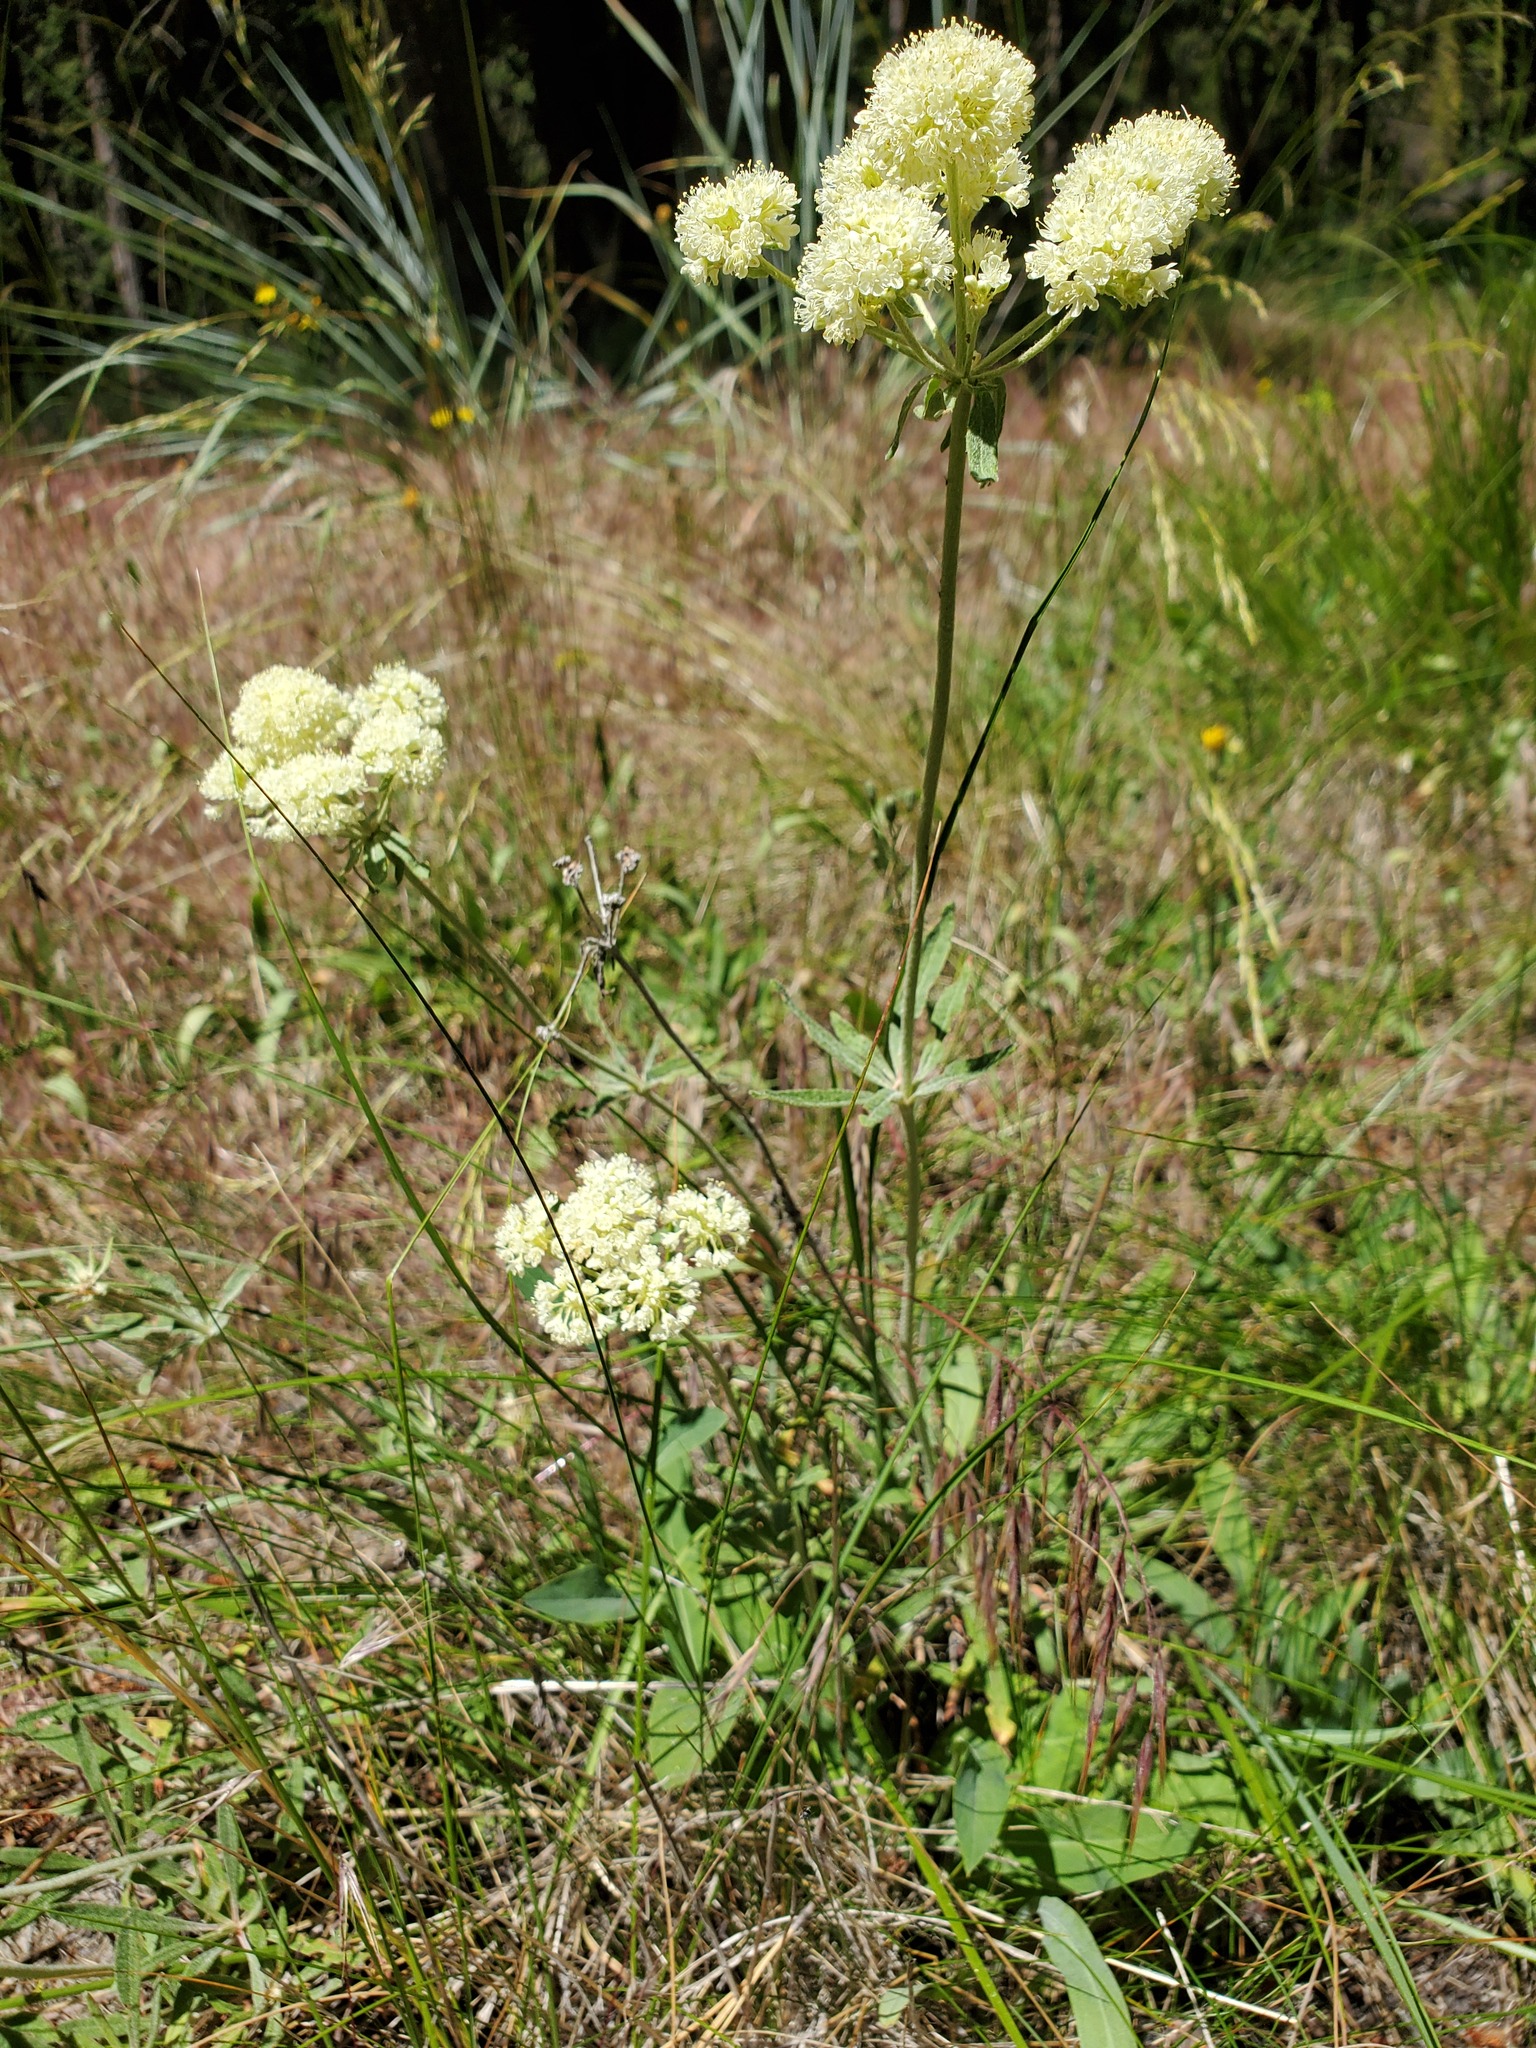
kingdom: Plantae
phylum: Tracheophyta
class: Magnoliopsida
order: Caryophyllales
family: Polygonaceae
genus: Eriogonum
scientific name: Eriogonum heracleoides
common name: Wyeth's buckwheat
